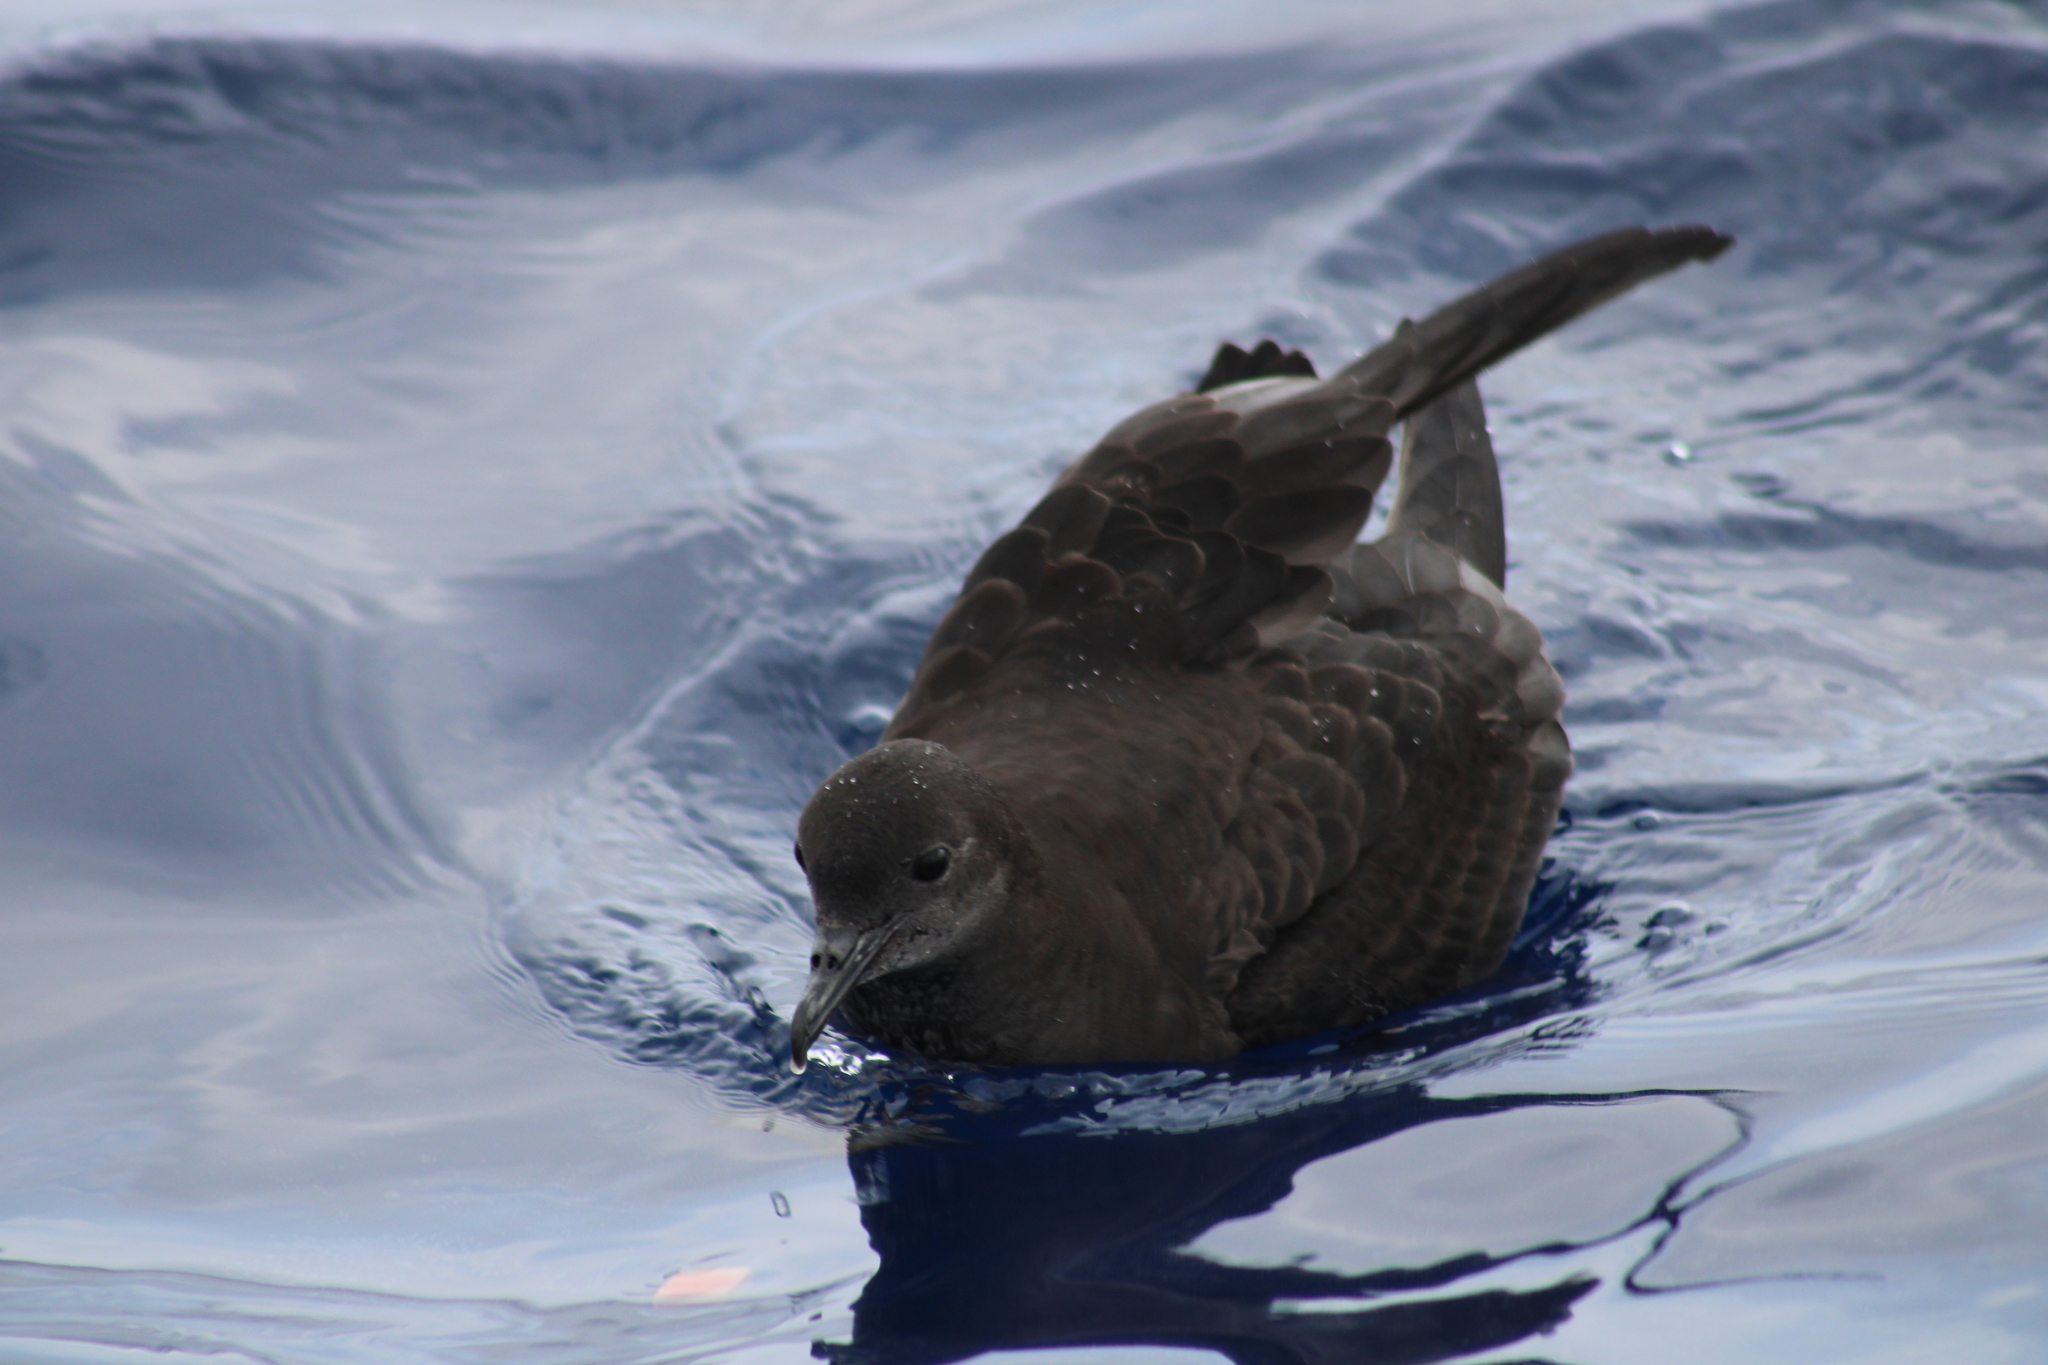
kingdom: Animalia
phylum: Chordata
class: Aves
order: Procellariiformes
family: Procellariidae
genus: Puffinus
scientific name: Puffinus tenuirostris
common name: Short-tailed shearwater
